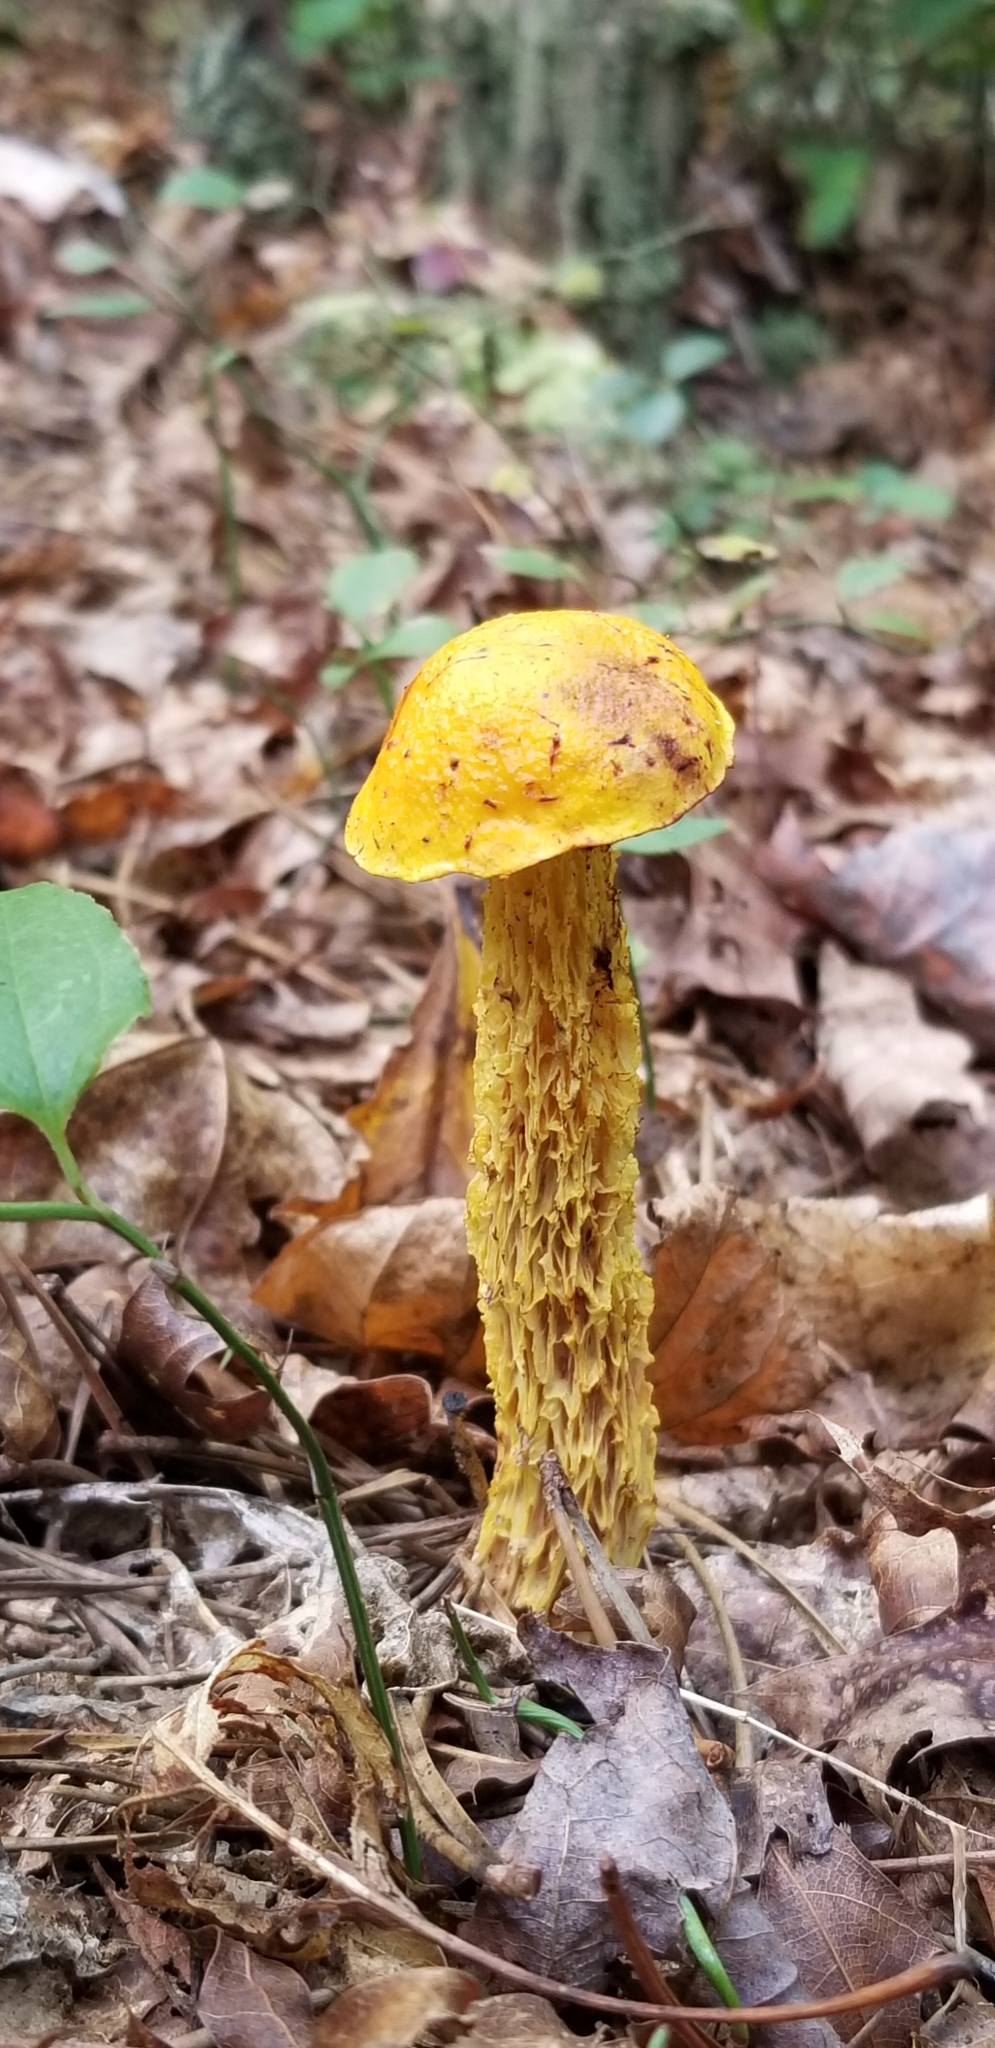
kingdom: Fungi
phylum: Basidiomycota
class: Agaricomycetes
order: Boletales
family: Boletaceae
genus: Aureoboletus
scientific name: Aureoboletus betula
